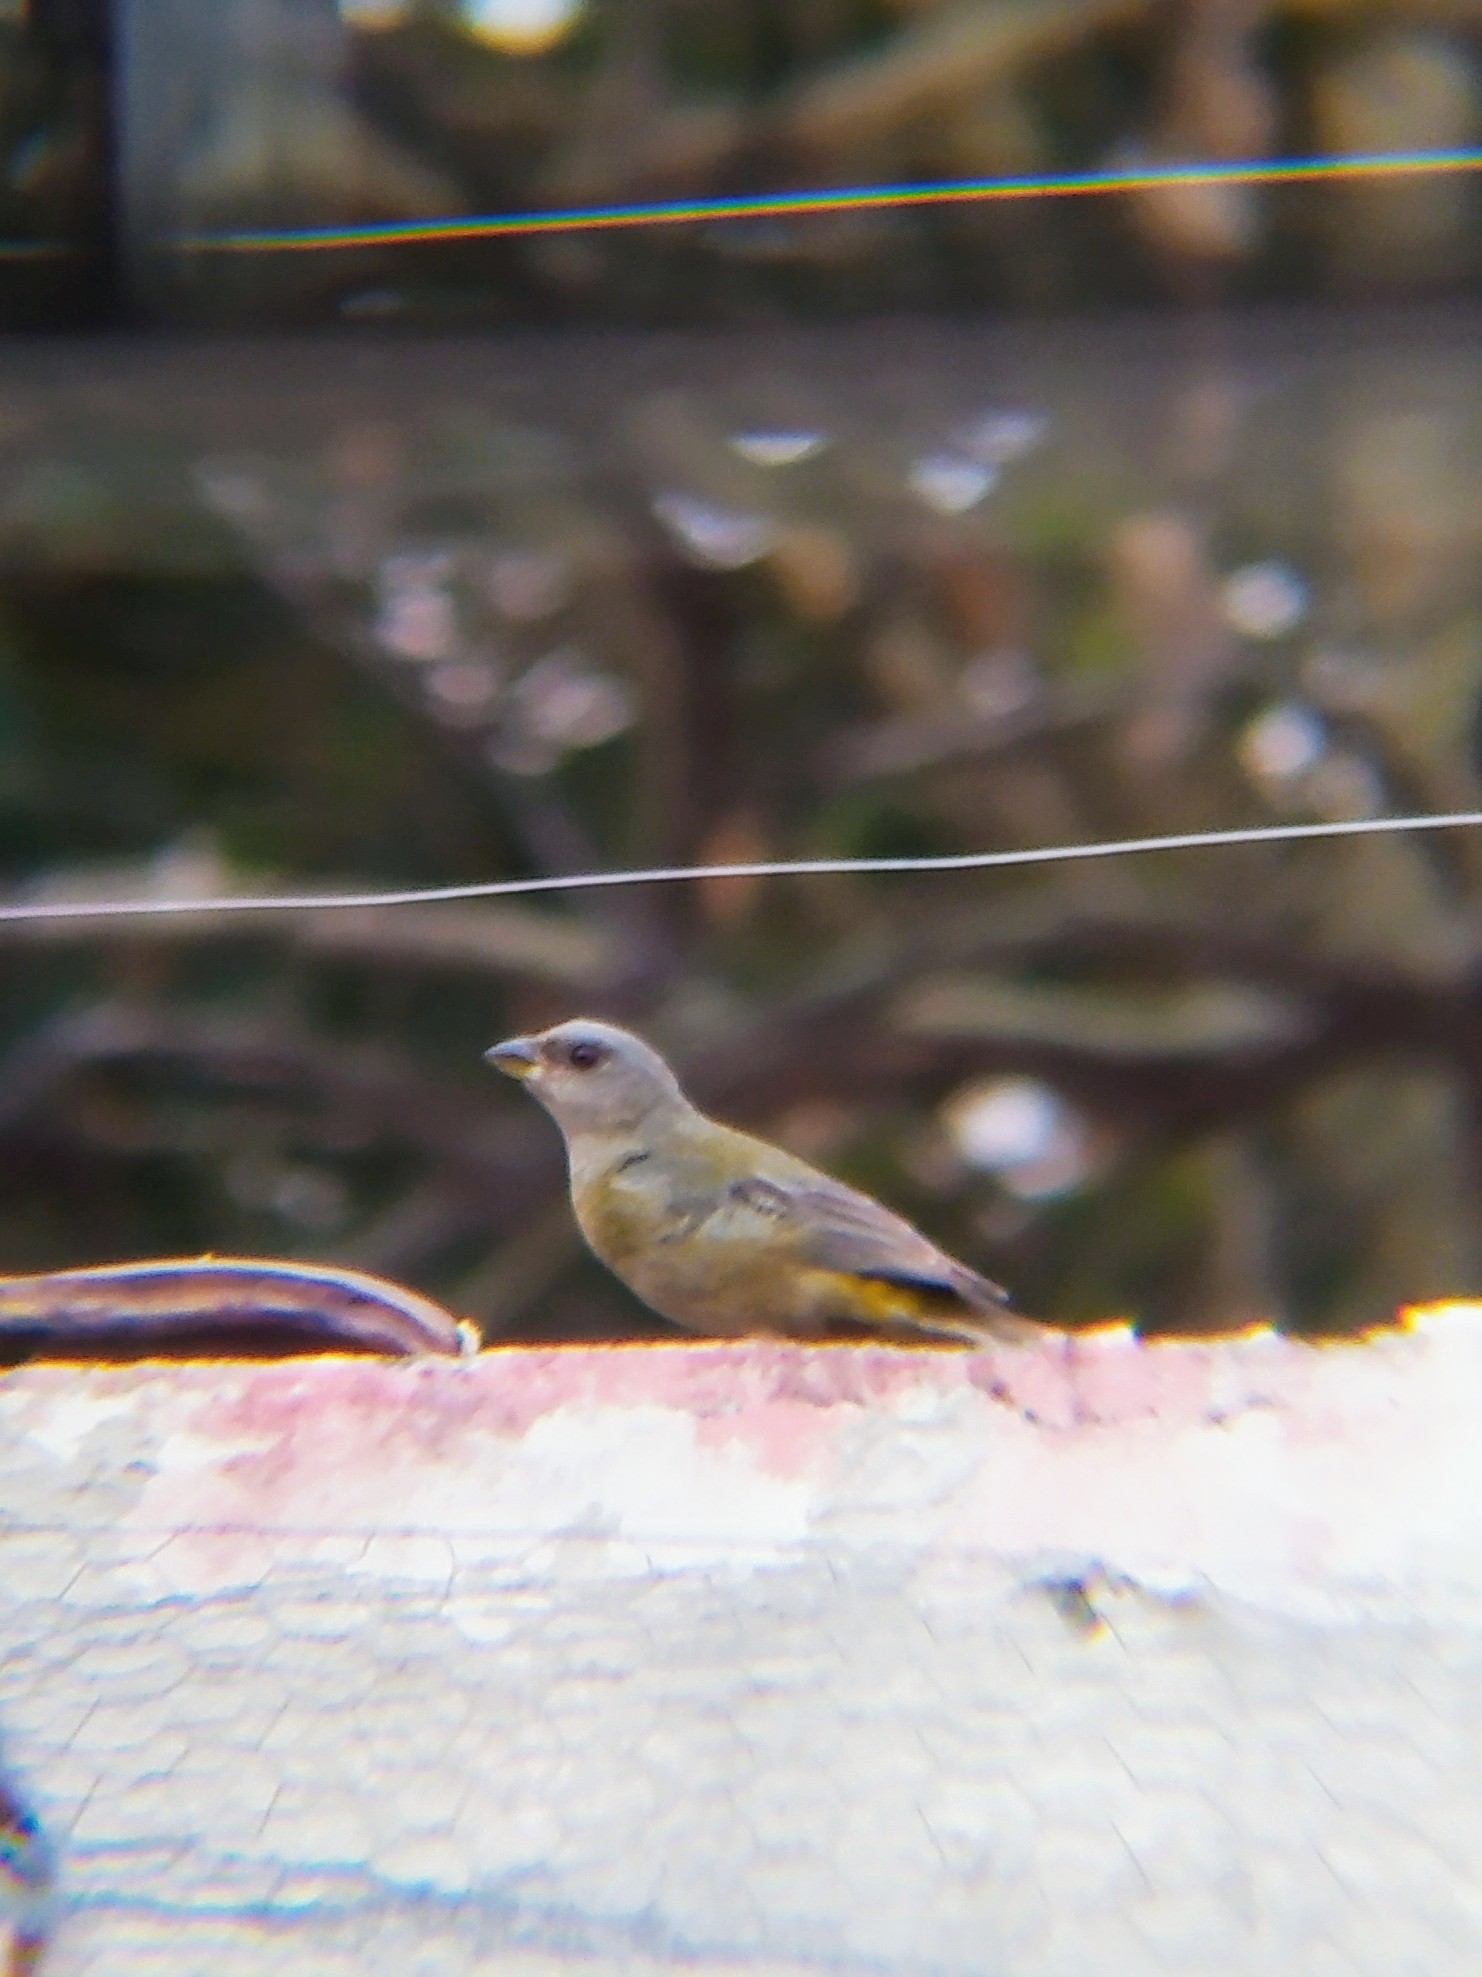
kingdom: Animalia
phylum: Chordata
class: Aves
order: Passeriformes
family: Thraupidae
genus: Rauenia
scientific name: Rauenia bonariensis
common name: Blue-and-yellow tanager
